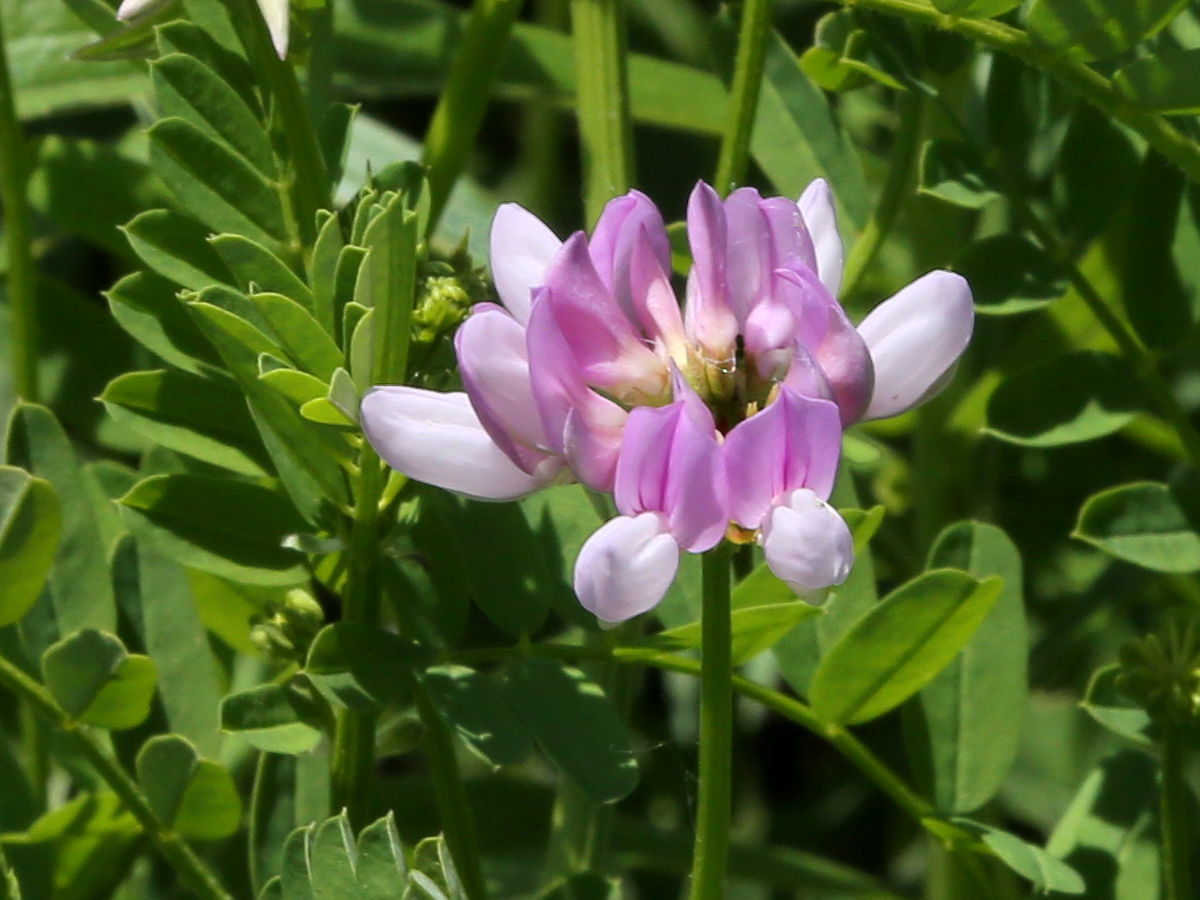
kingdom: Plantae
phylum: Tracheophyta
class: Magnoliopsida
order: Fabales
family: Fabaceae
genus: Coronilla
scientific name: Coronilla varia
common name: Crownvetch
